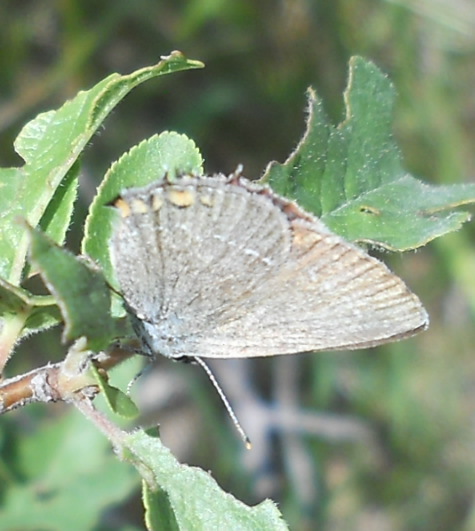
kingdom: Animalia
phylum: Arthropoda
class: Insecta
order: Lepidoptera
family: Lycaenidae
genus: Strymon
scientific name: Strymon acaciae
